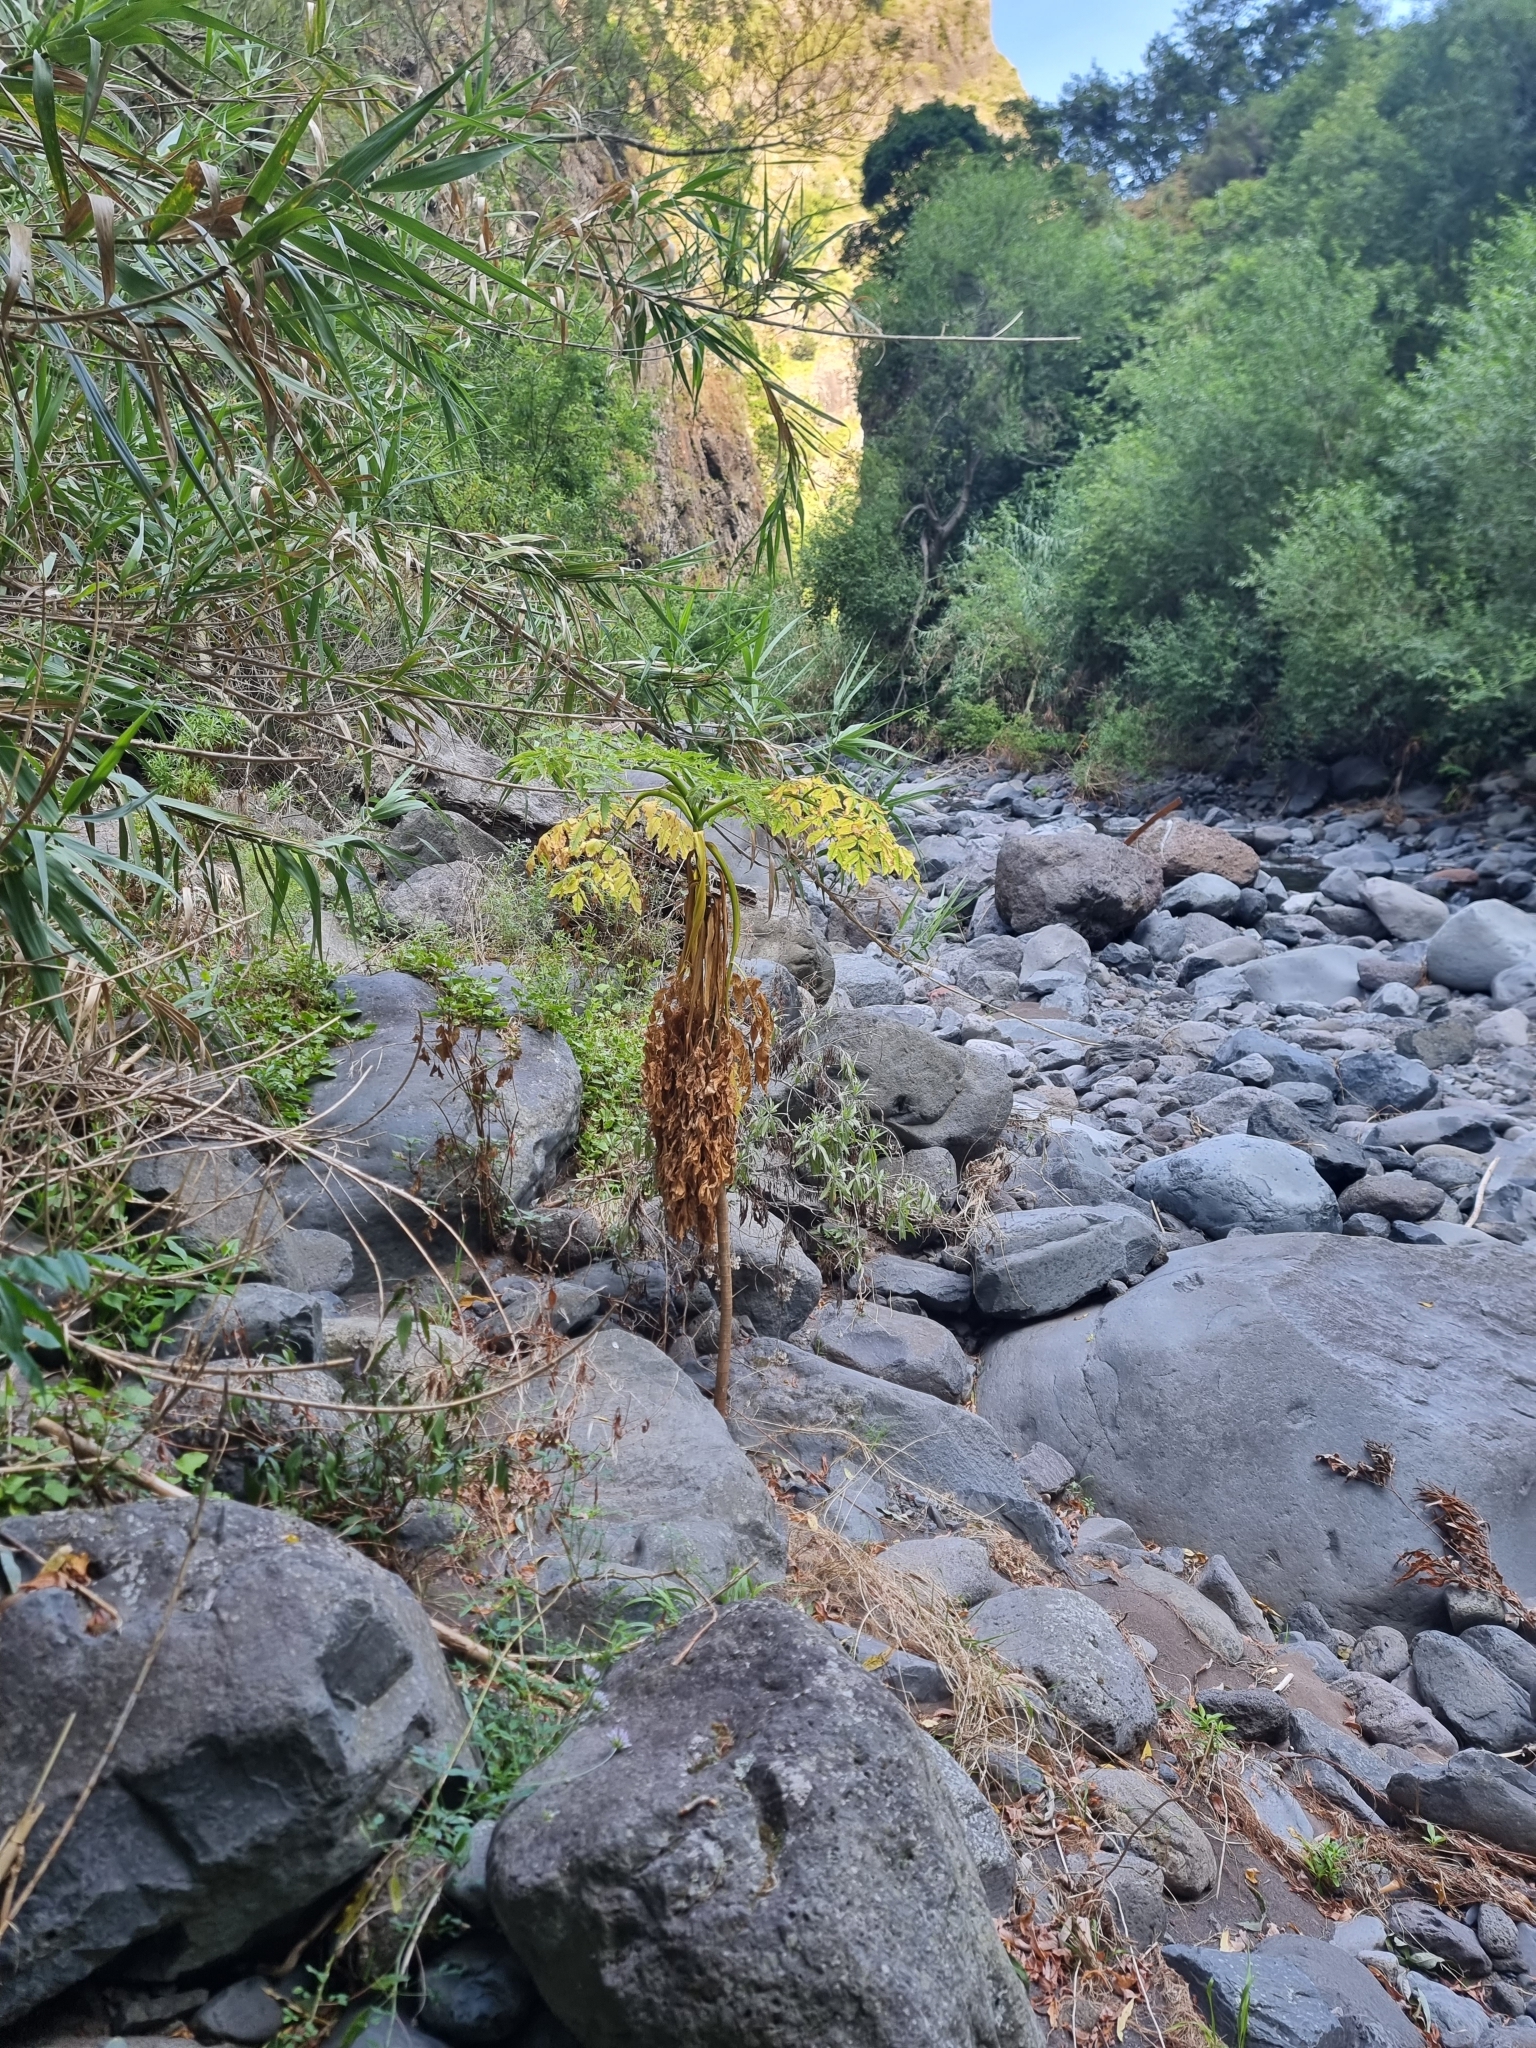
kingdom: Plantae
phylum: Tracheophyta
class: Magnoliopsida
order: Apiales
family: Apiaceae
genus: Daucus
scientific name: Daucus decipiens
